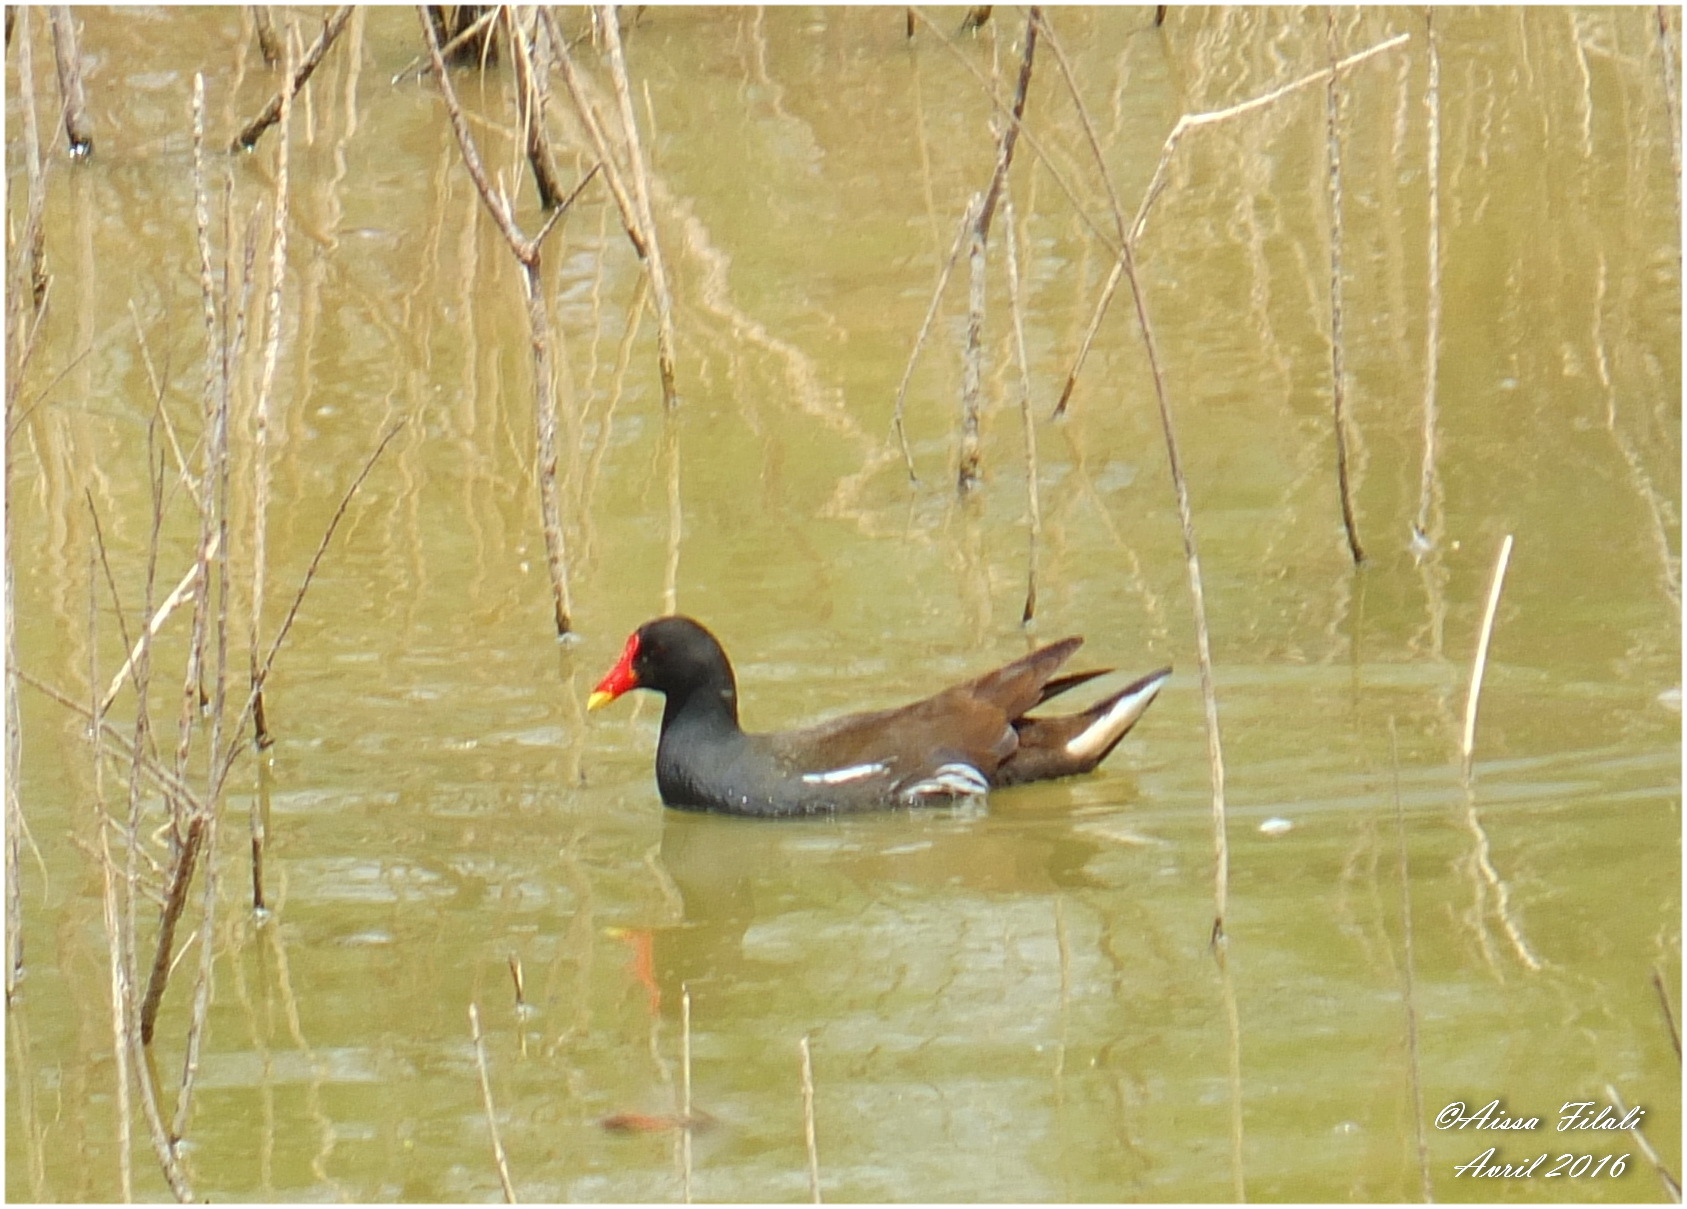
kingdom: Animalia
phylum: Chordata
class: Aves
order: Gruiformes
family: Rallidae
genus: Gallinula
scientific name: Gallinula chloropus
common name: Common moorhen
